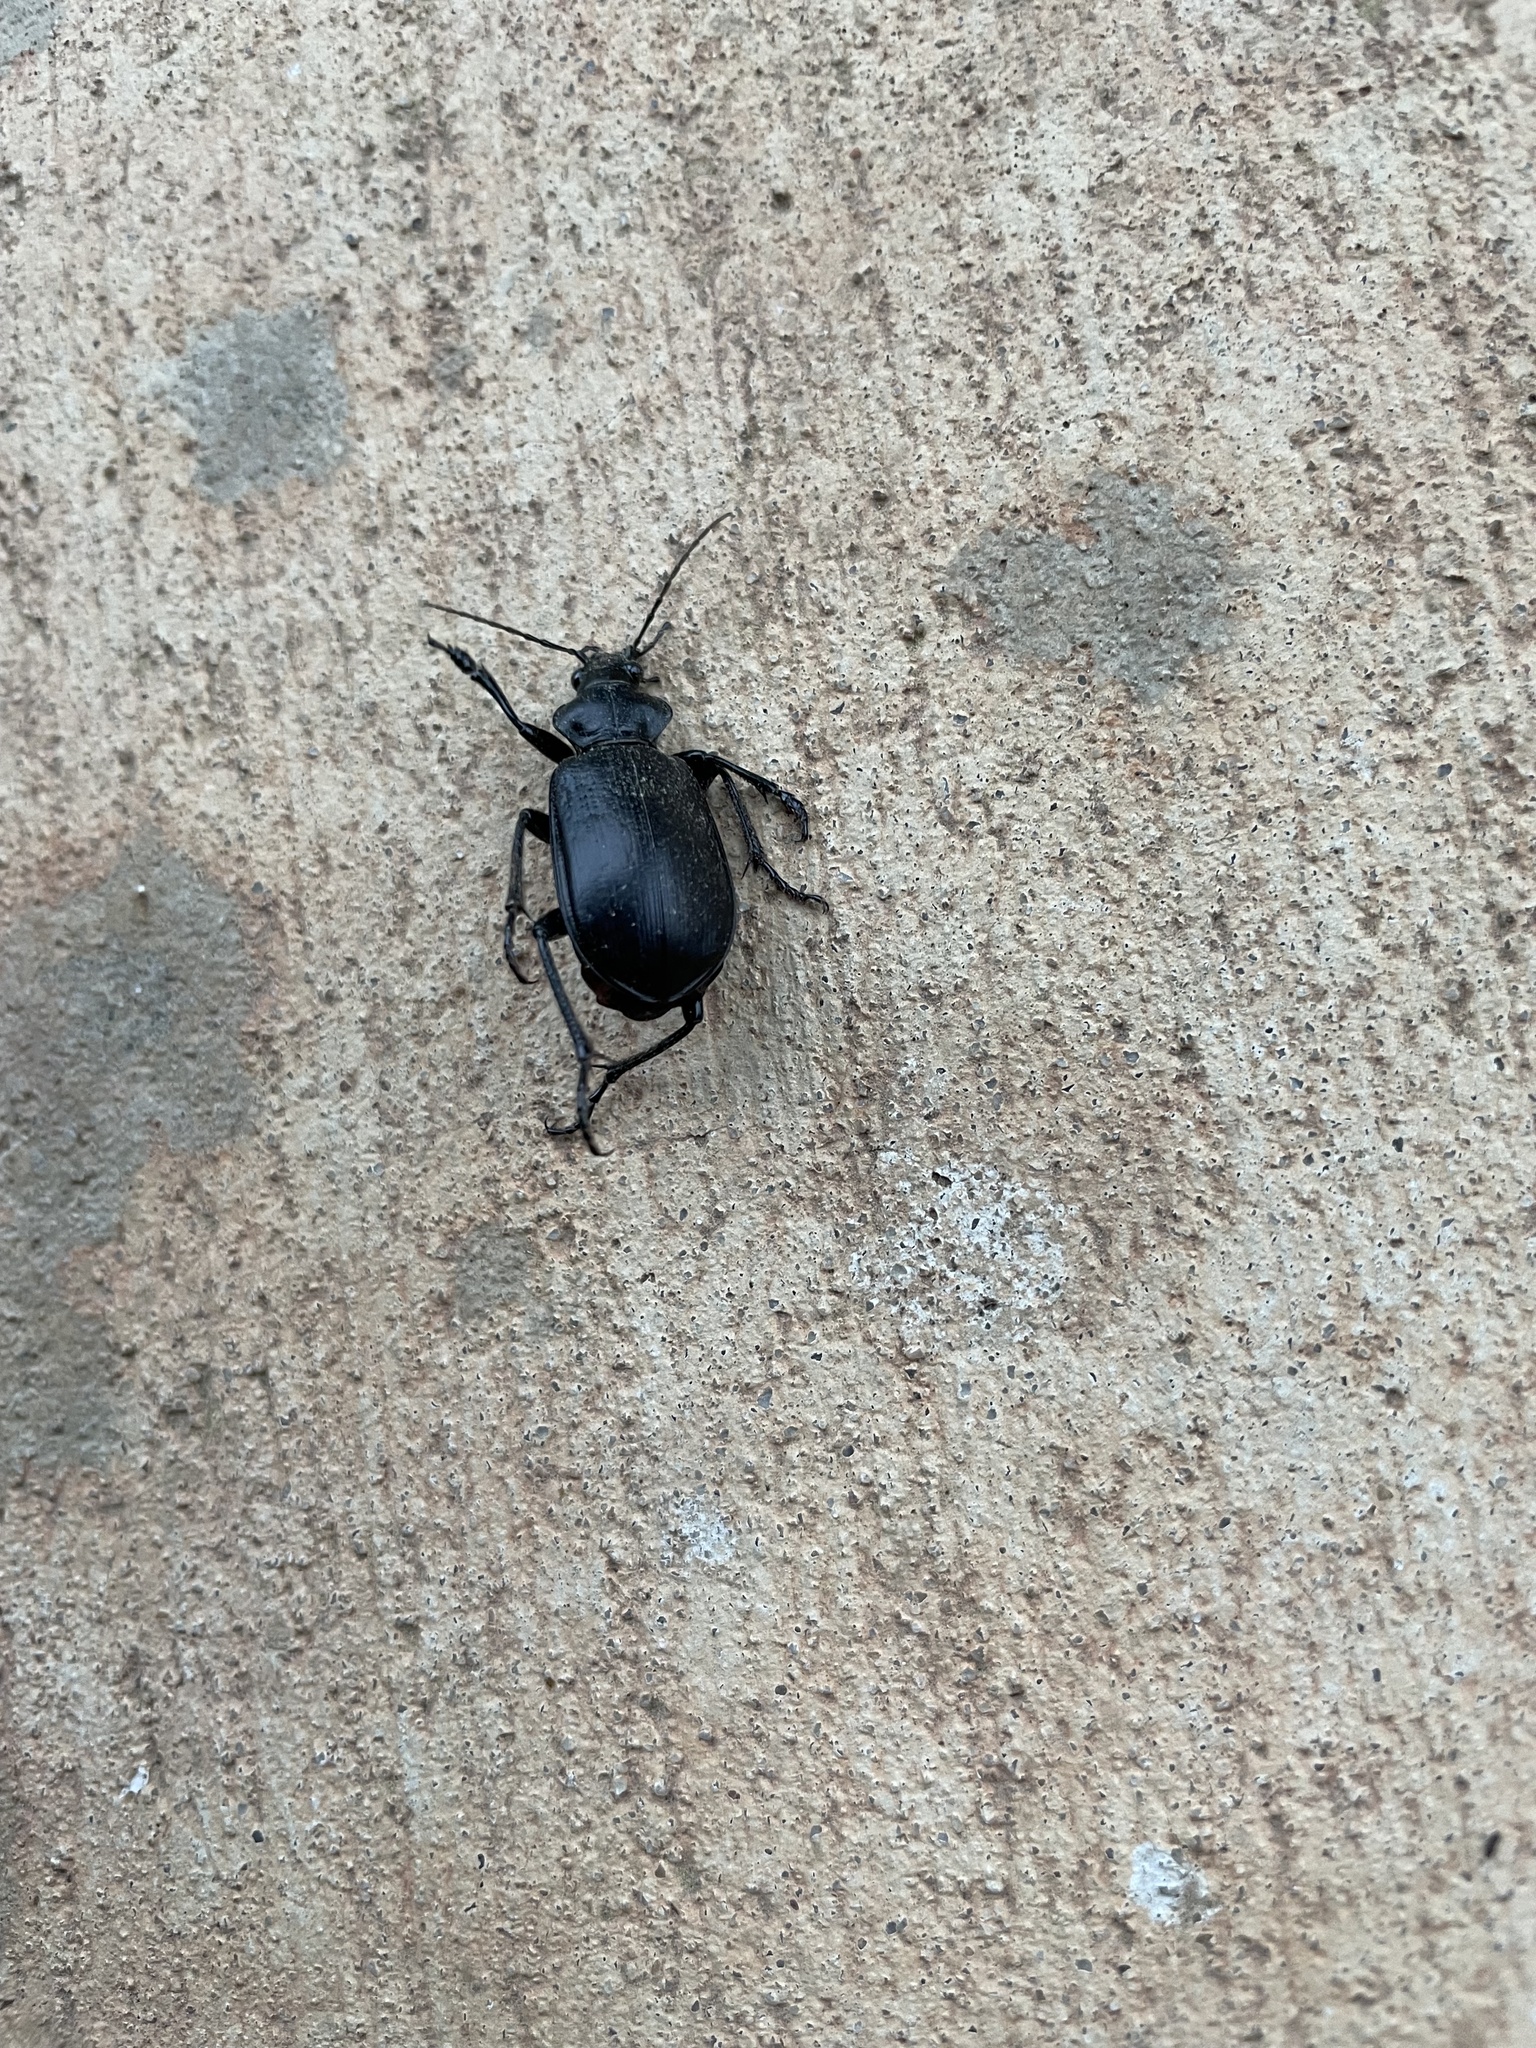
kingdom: Animalia
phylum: Arthropoda
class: Insecta
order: Coleoptera
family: Carabidae
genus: Calosoma
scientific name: Calosoma marginale
